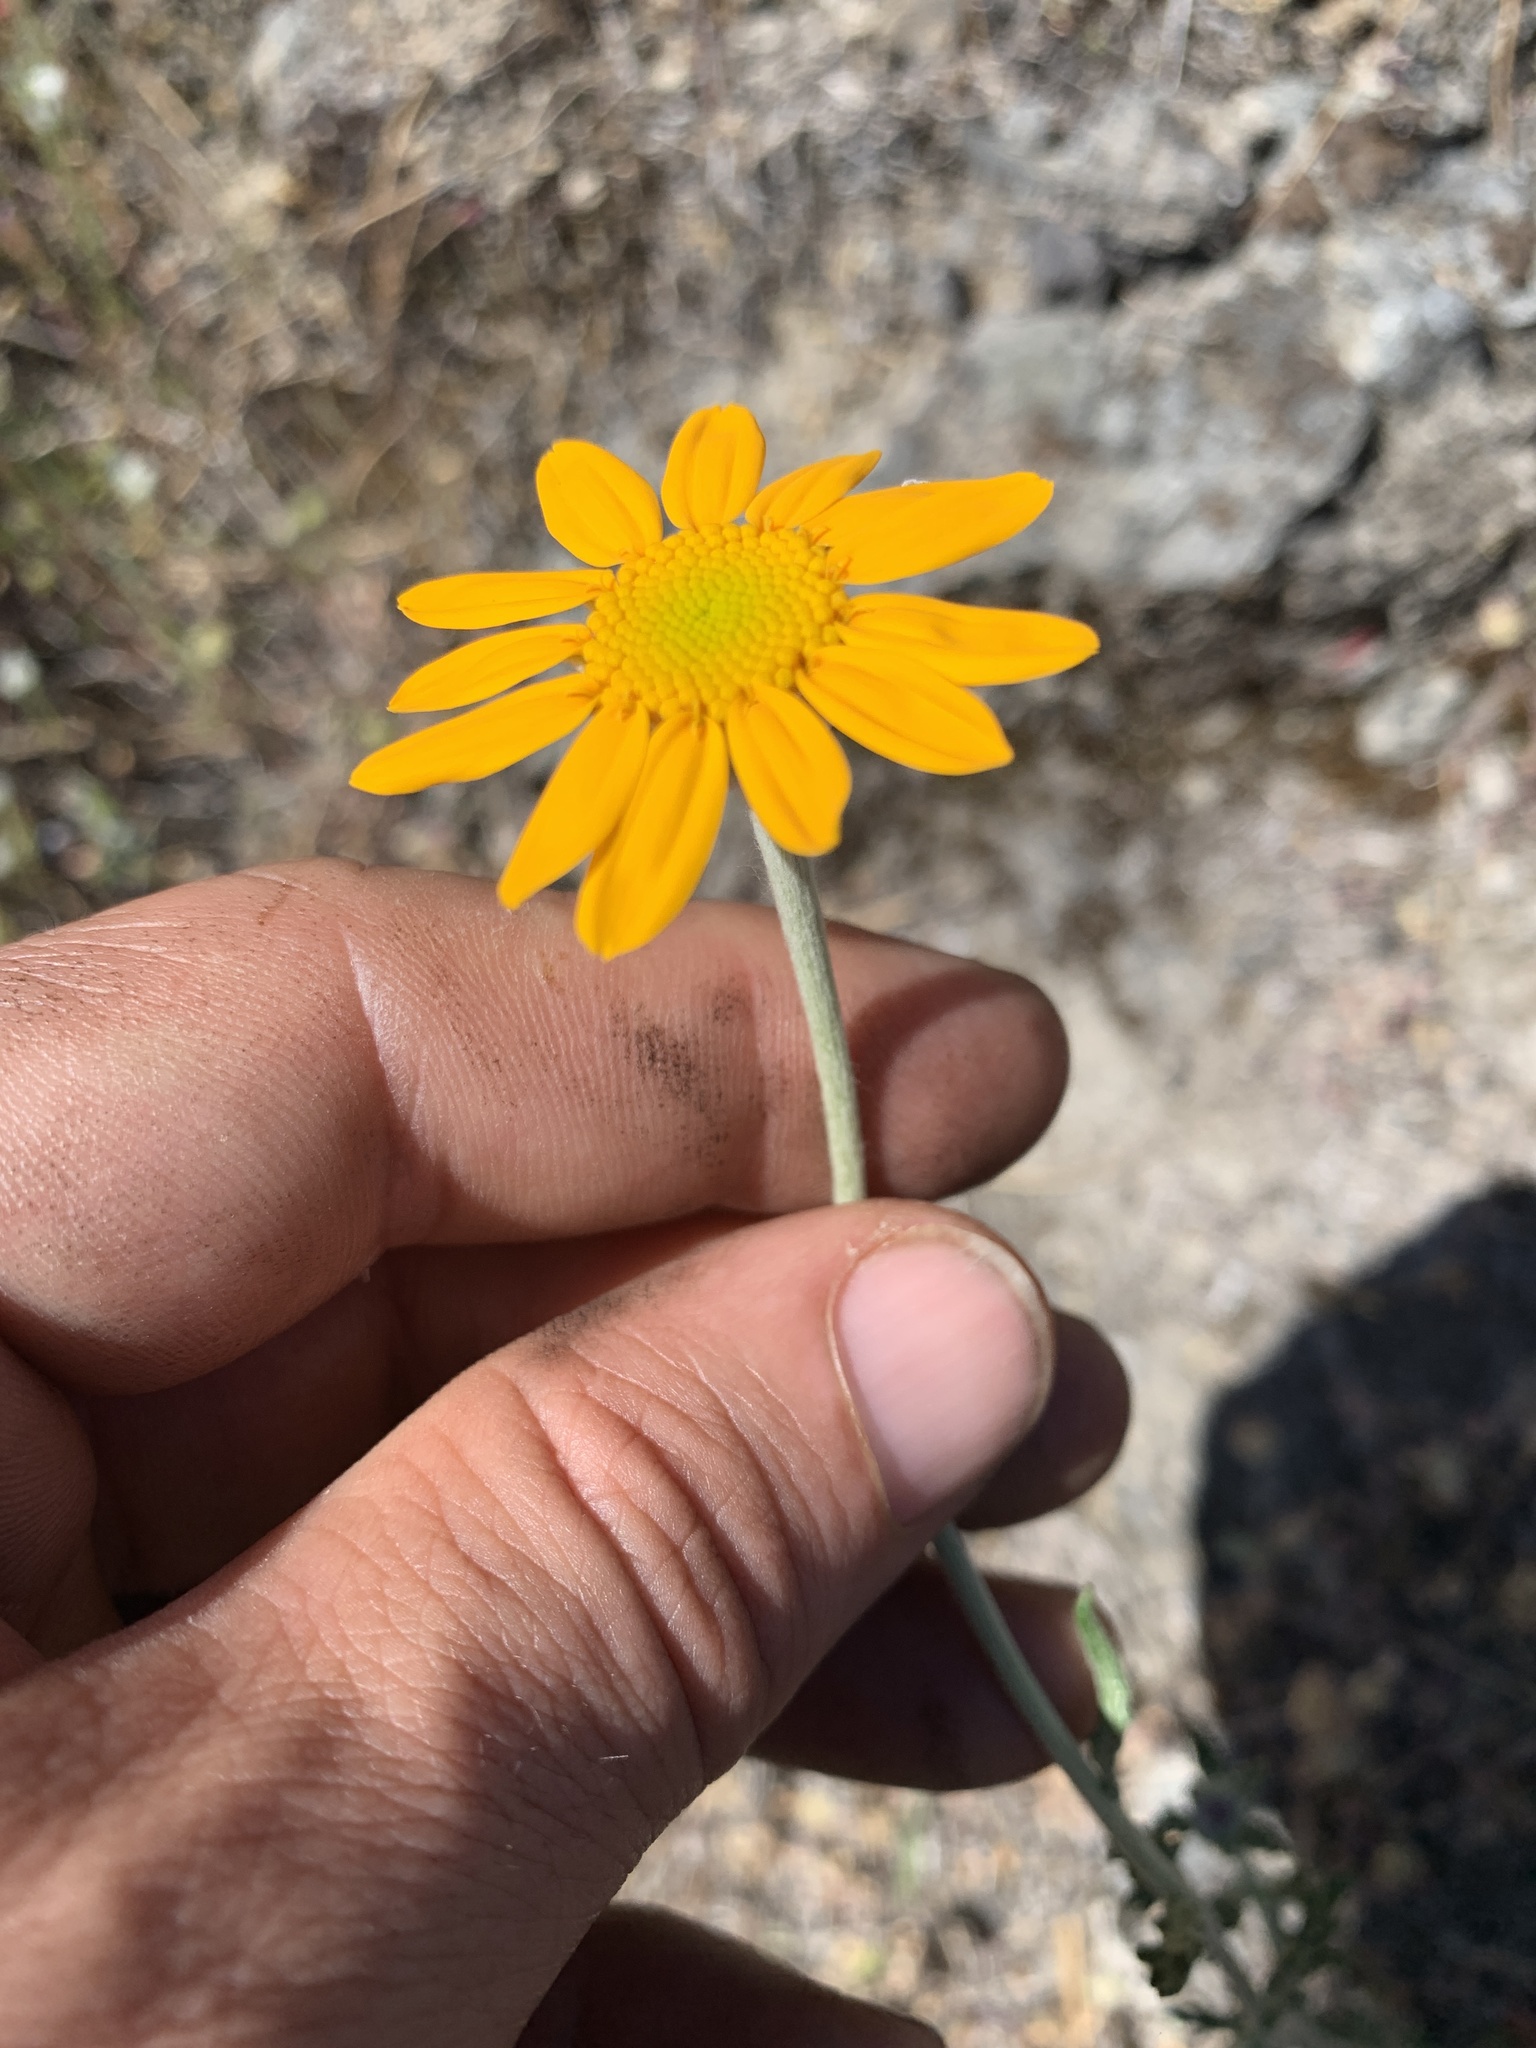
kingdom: Plantae
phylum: Tracheophyta
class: Magnoliopsida
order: Asterales
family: Asteraceae
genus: Eriophyllum
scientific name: Eriophyllum lanatum
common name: Common woolly-sunflower
